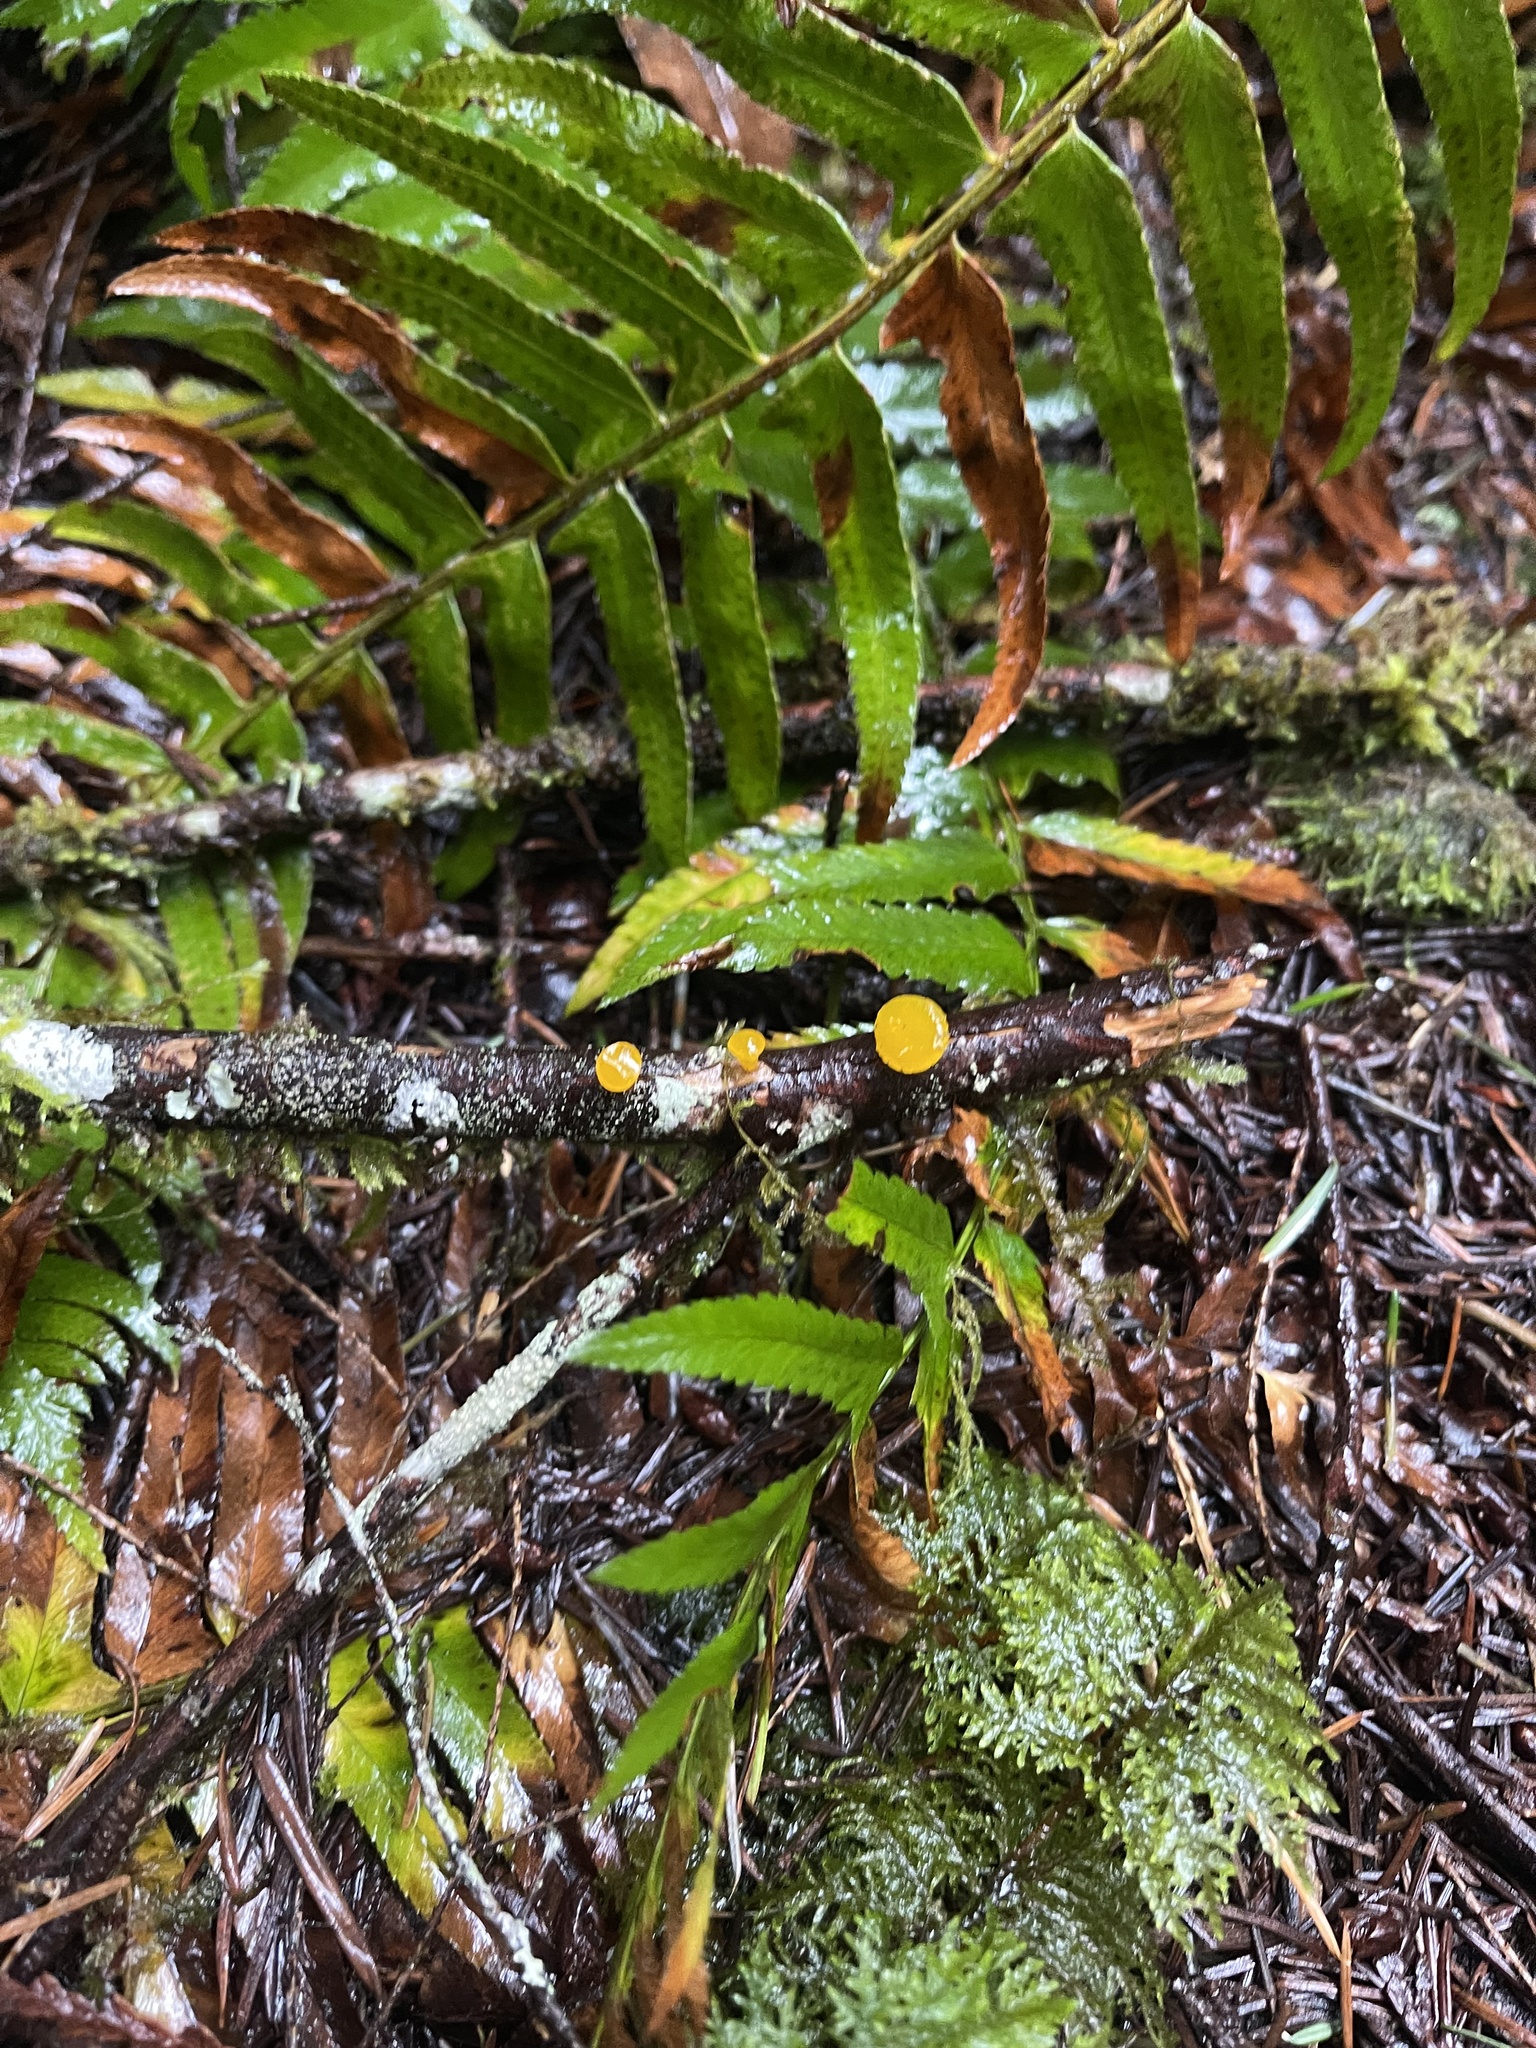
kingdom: Fungi
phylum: Basidiomycota
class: Dacrymycetes
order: Dacrymycetales
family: Dacrymycetaceae
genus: Guepiniopsis
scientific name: Guepiniopsis alpina
